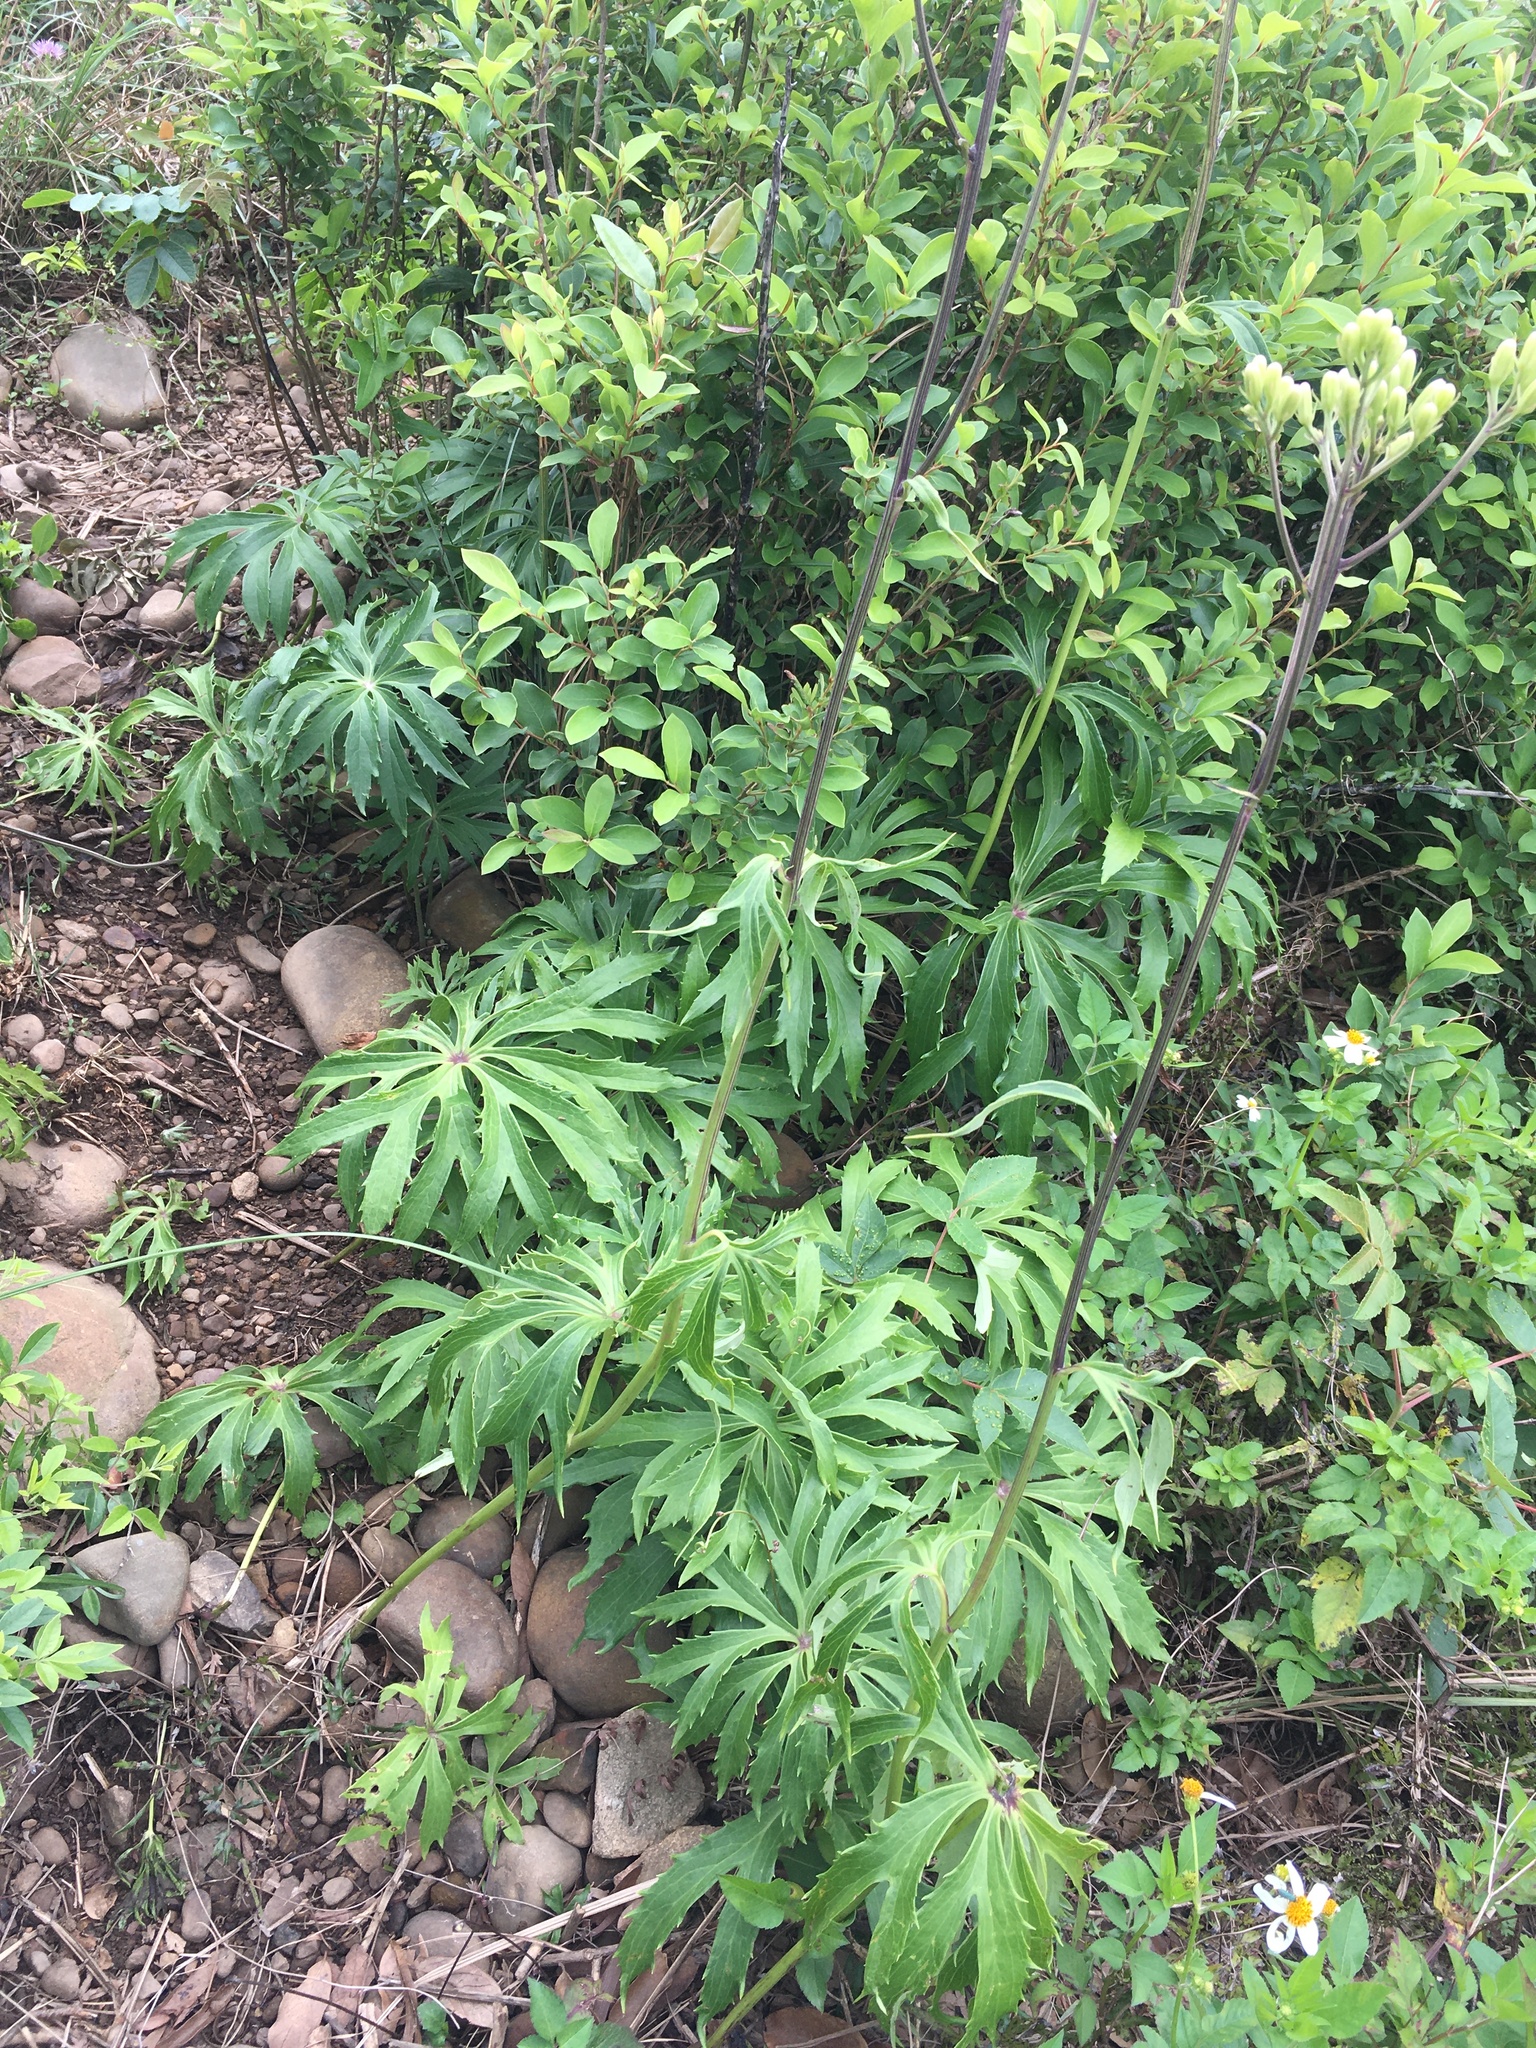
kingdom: Plantae
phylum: Tracheophyta
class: Magnoliopsida
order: Asterales
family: Asteraceae
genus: Syneilesis
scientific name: Syneilesis hayatae
